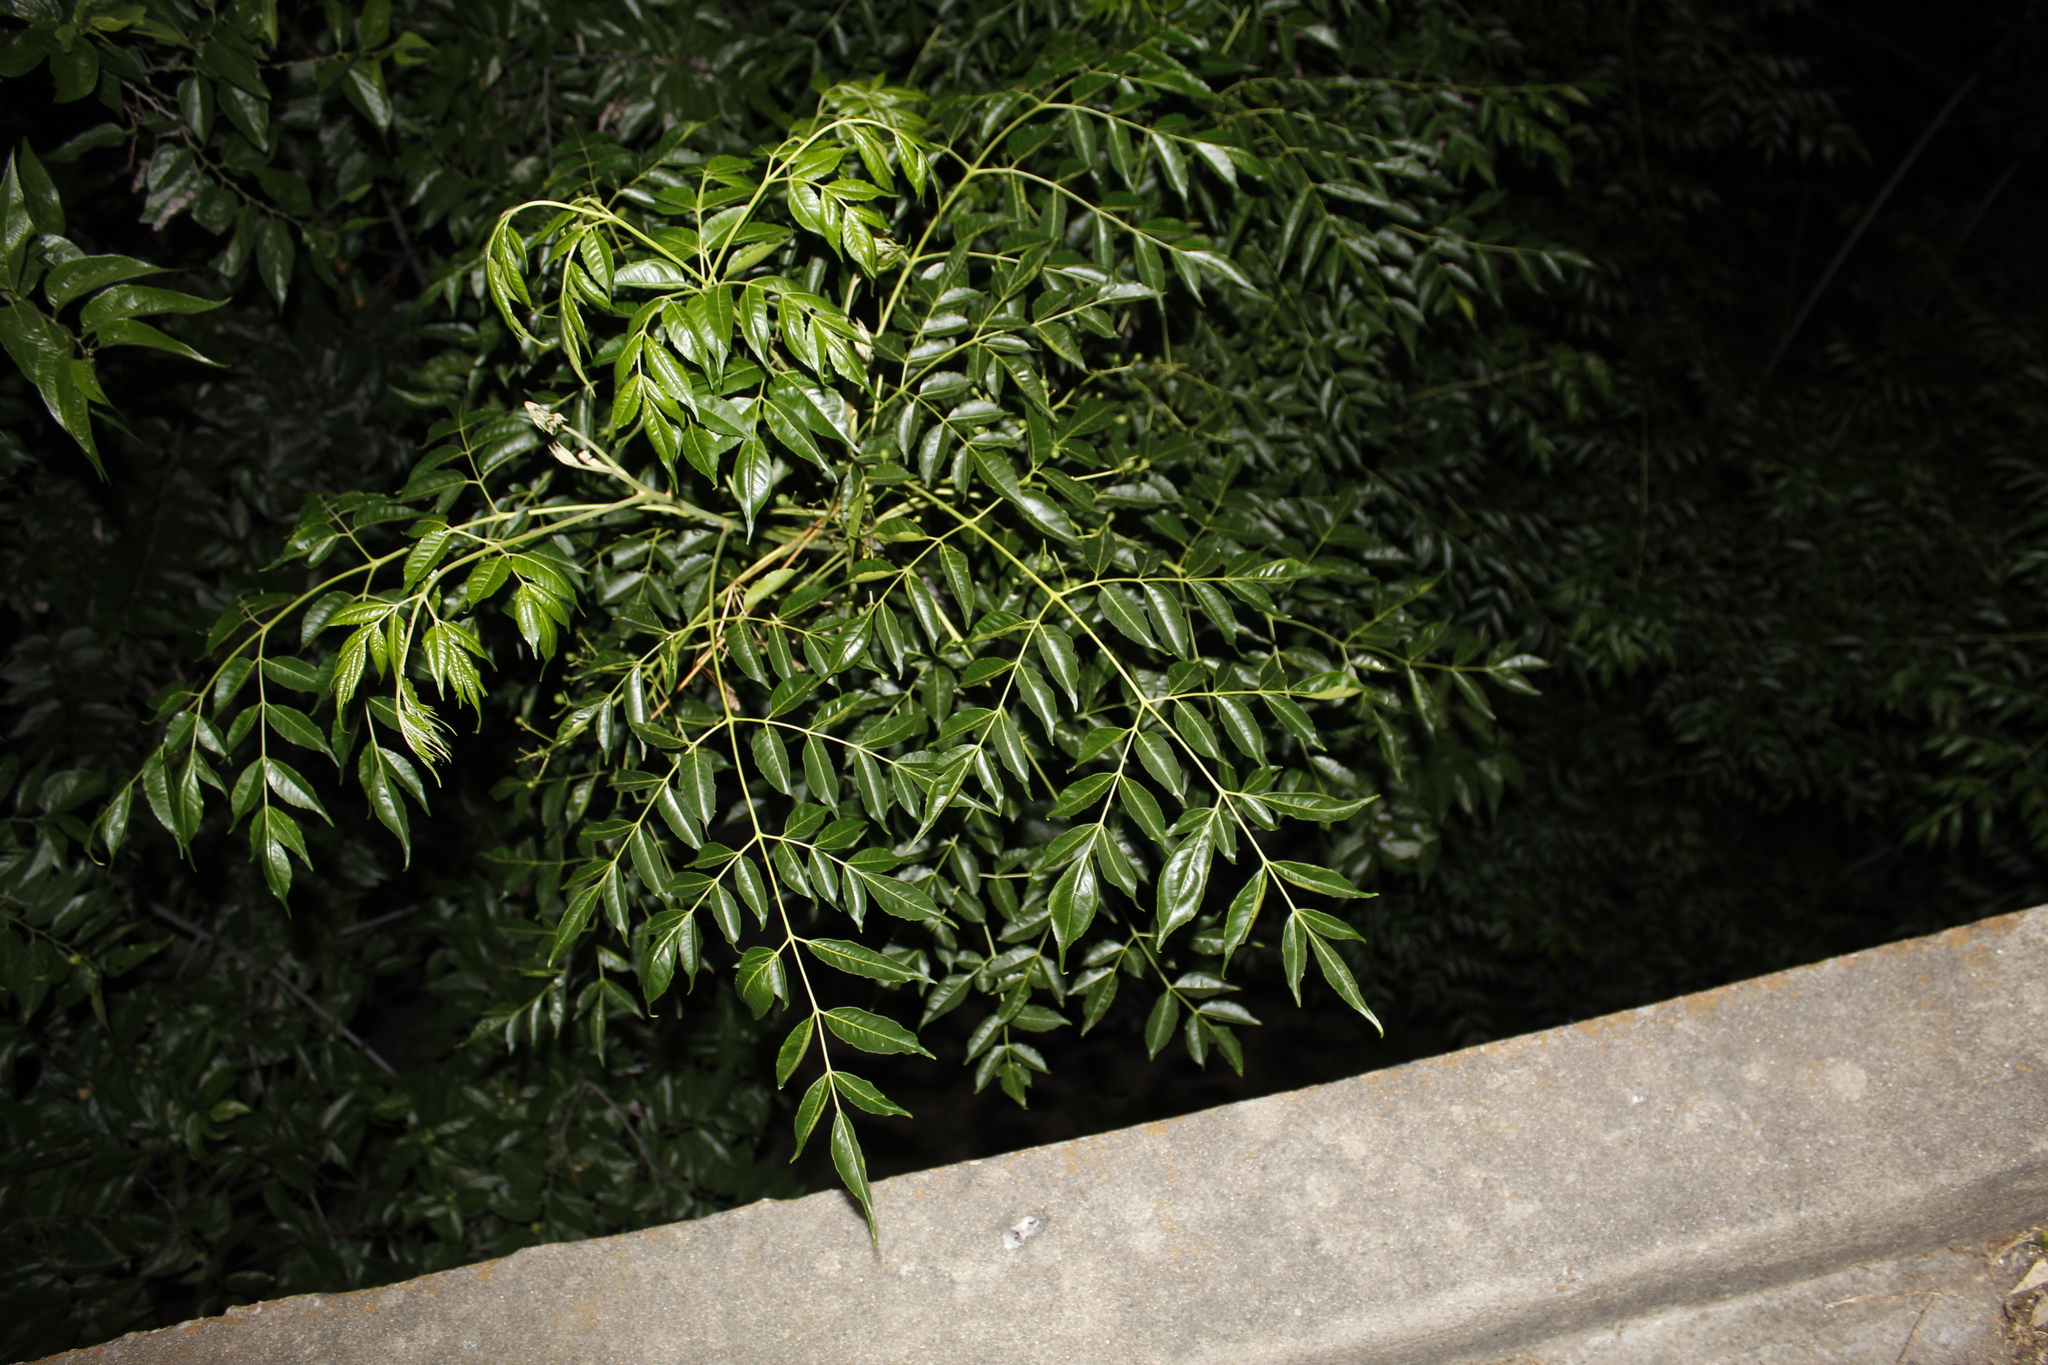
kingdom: Plantae
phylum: Tracheophyta
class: Magnoliopsida
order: Sapindales
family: Meliaceae
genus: Melia
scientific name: Melia azedarach
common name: Chinaberrytree
